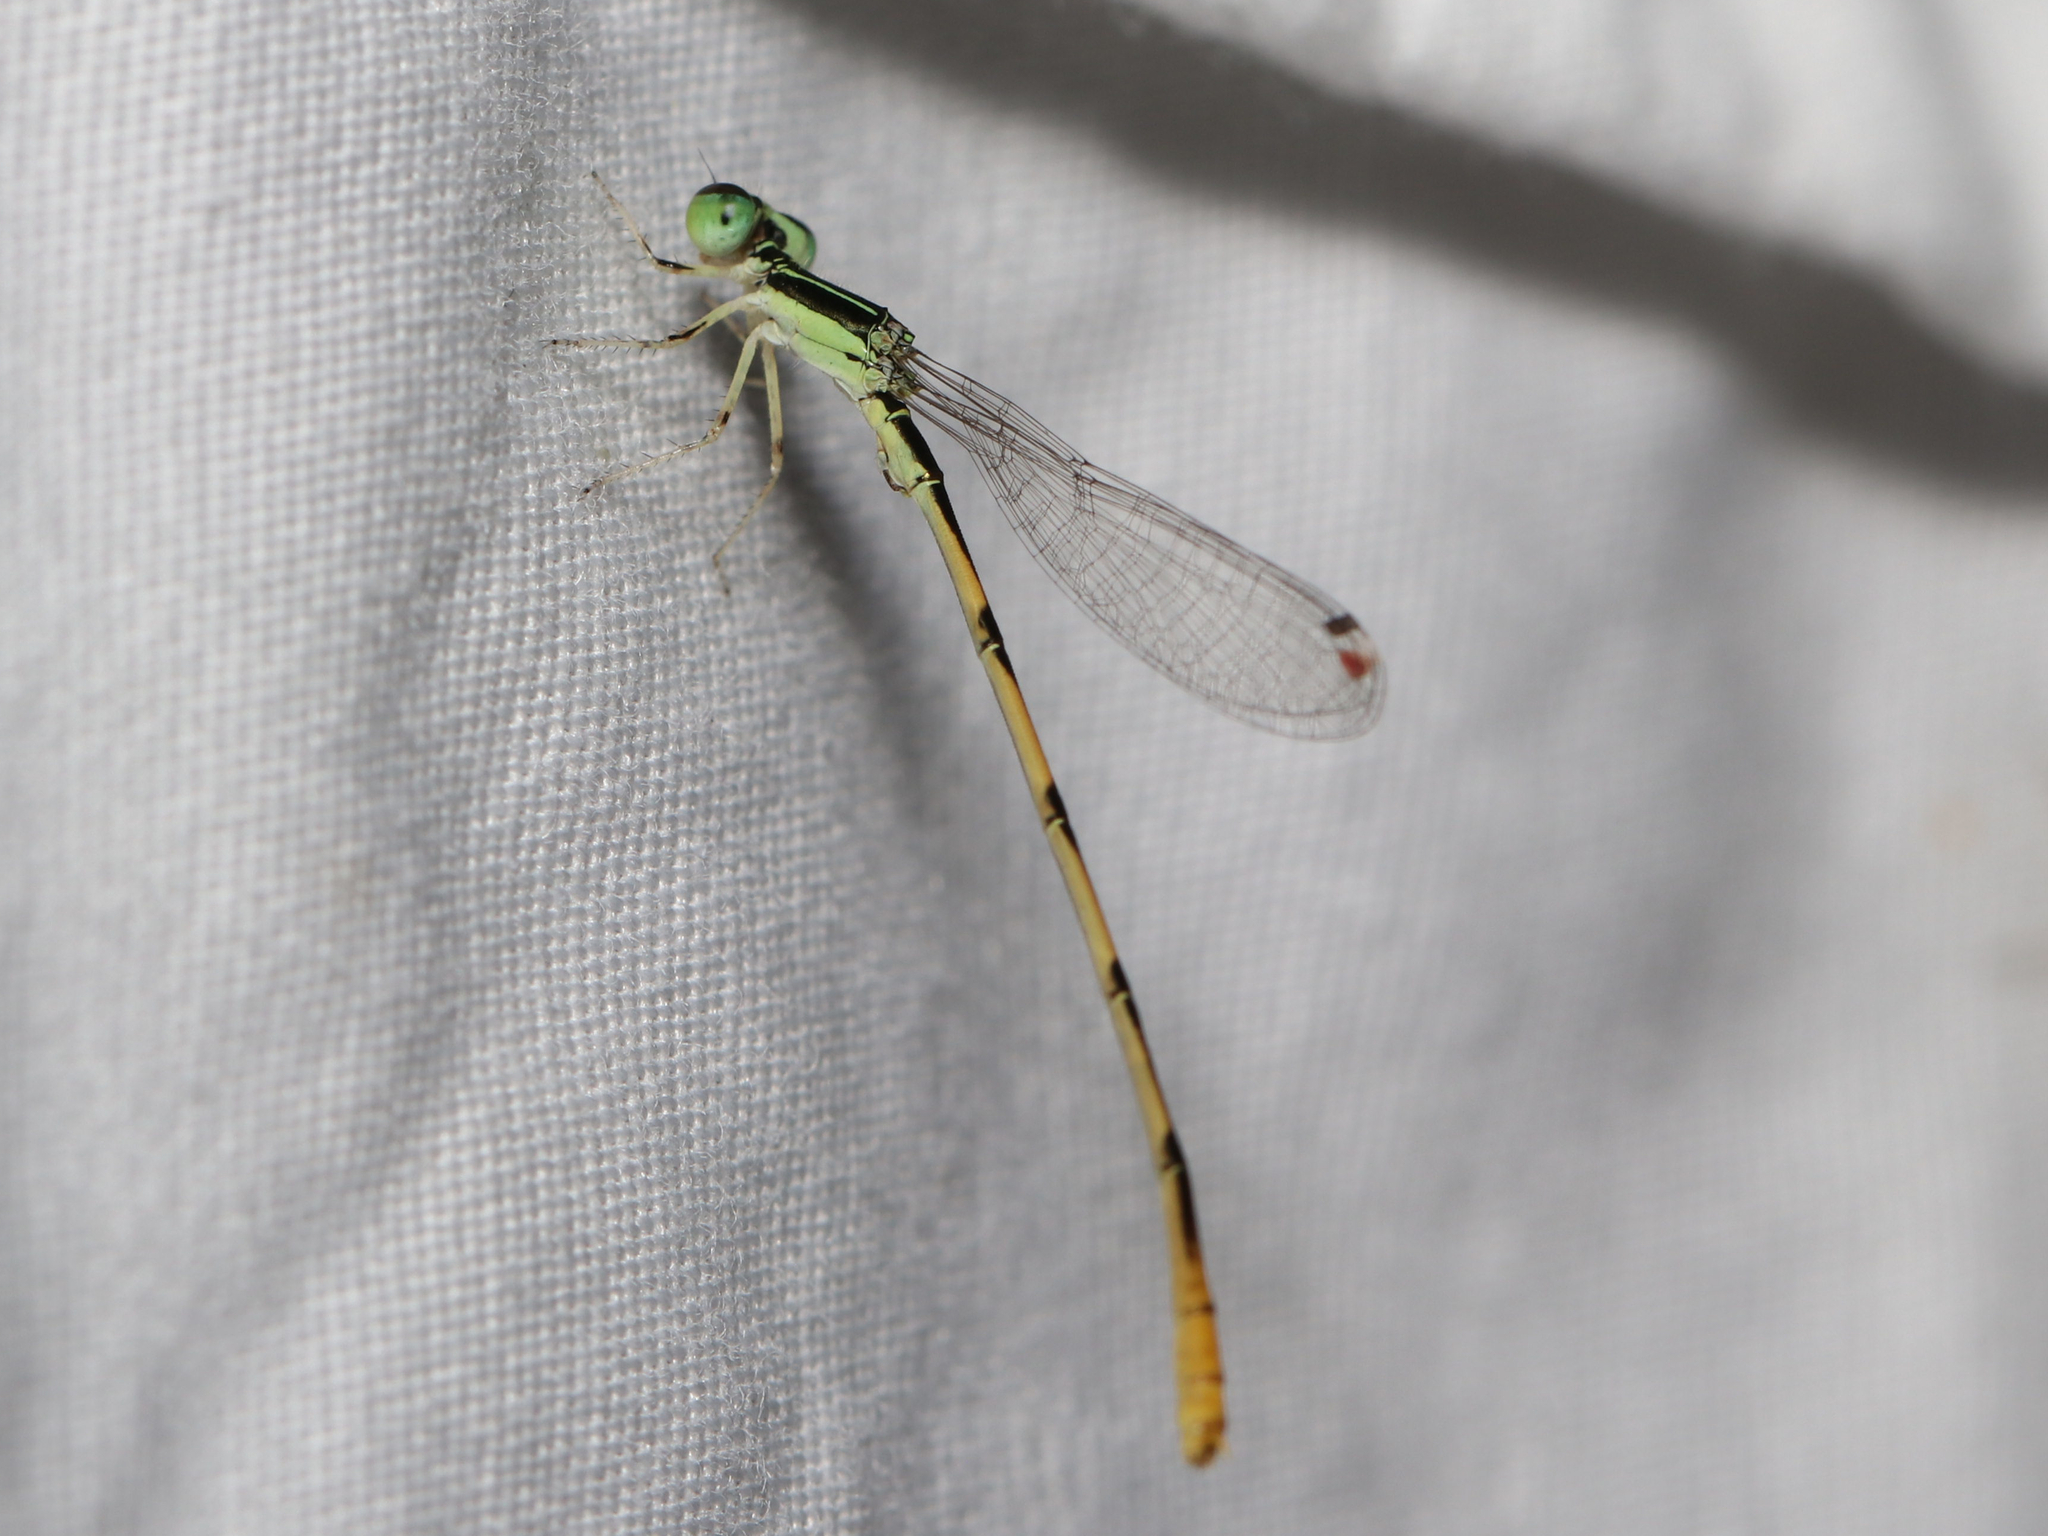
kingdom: Animalia
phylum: Arthropoda
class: Insecta
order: Odonata
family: Coenagrionidae
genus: Ischnura
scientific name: Ischnura hastata
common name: Citrine forktail
